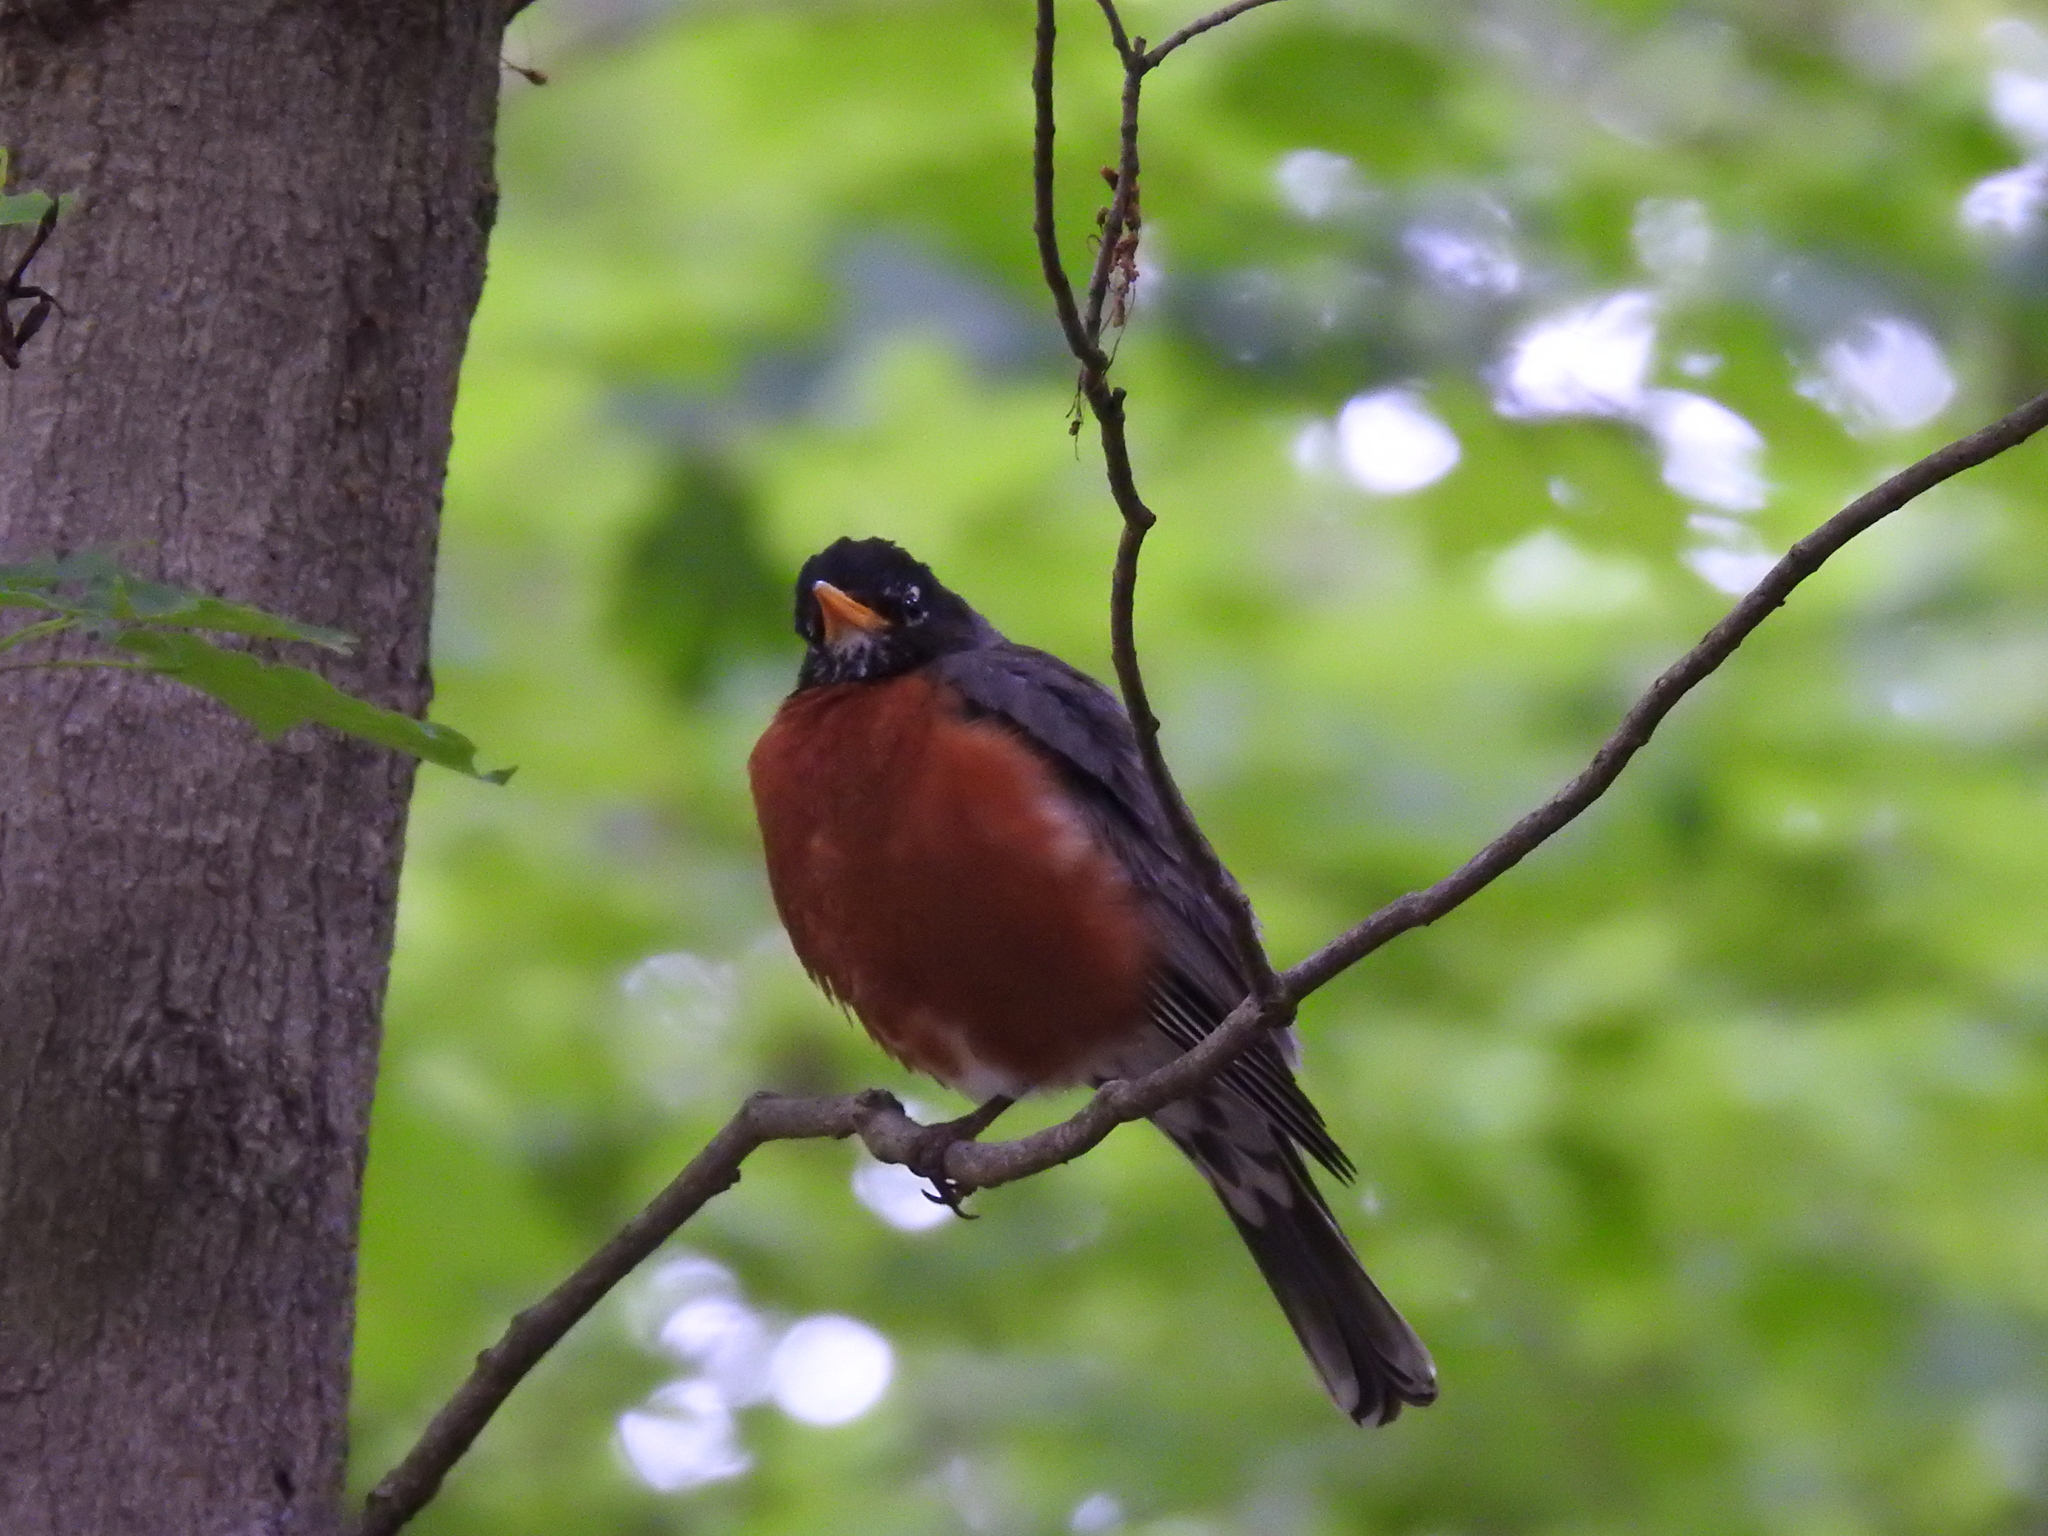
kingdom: Animalia
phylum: Chordata
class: Aves
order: Passeriformes
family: Turdidae
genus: Turdus
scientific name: Turdus migratorius
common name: American robin
